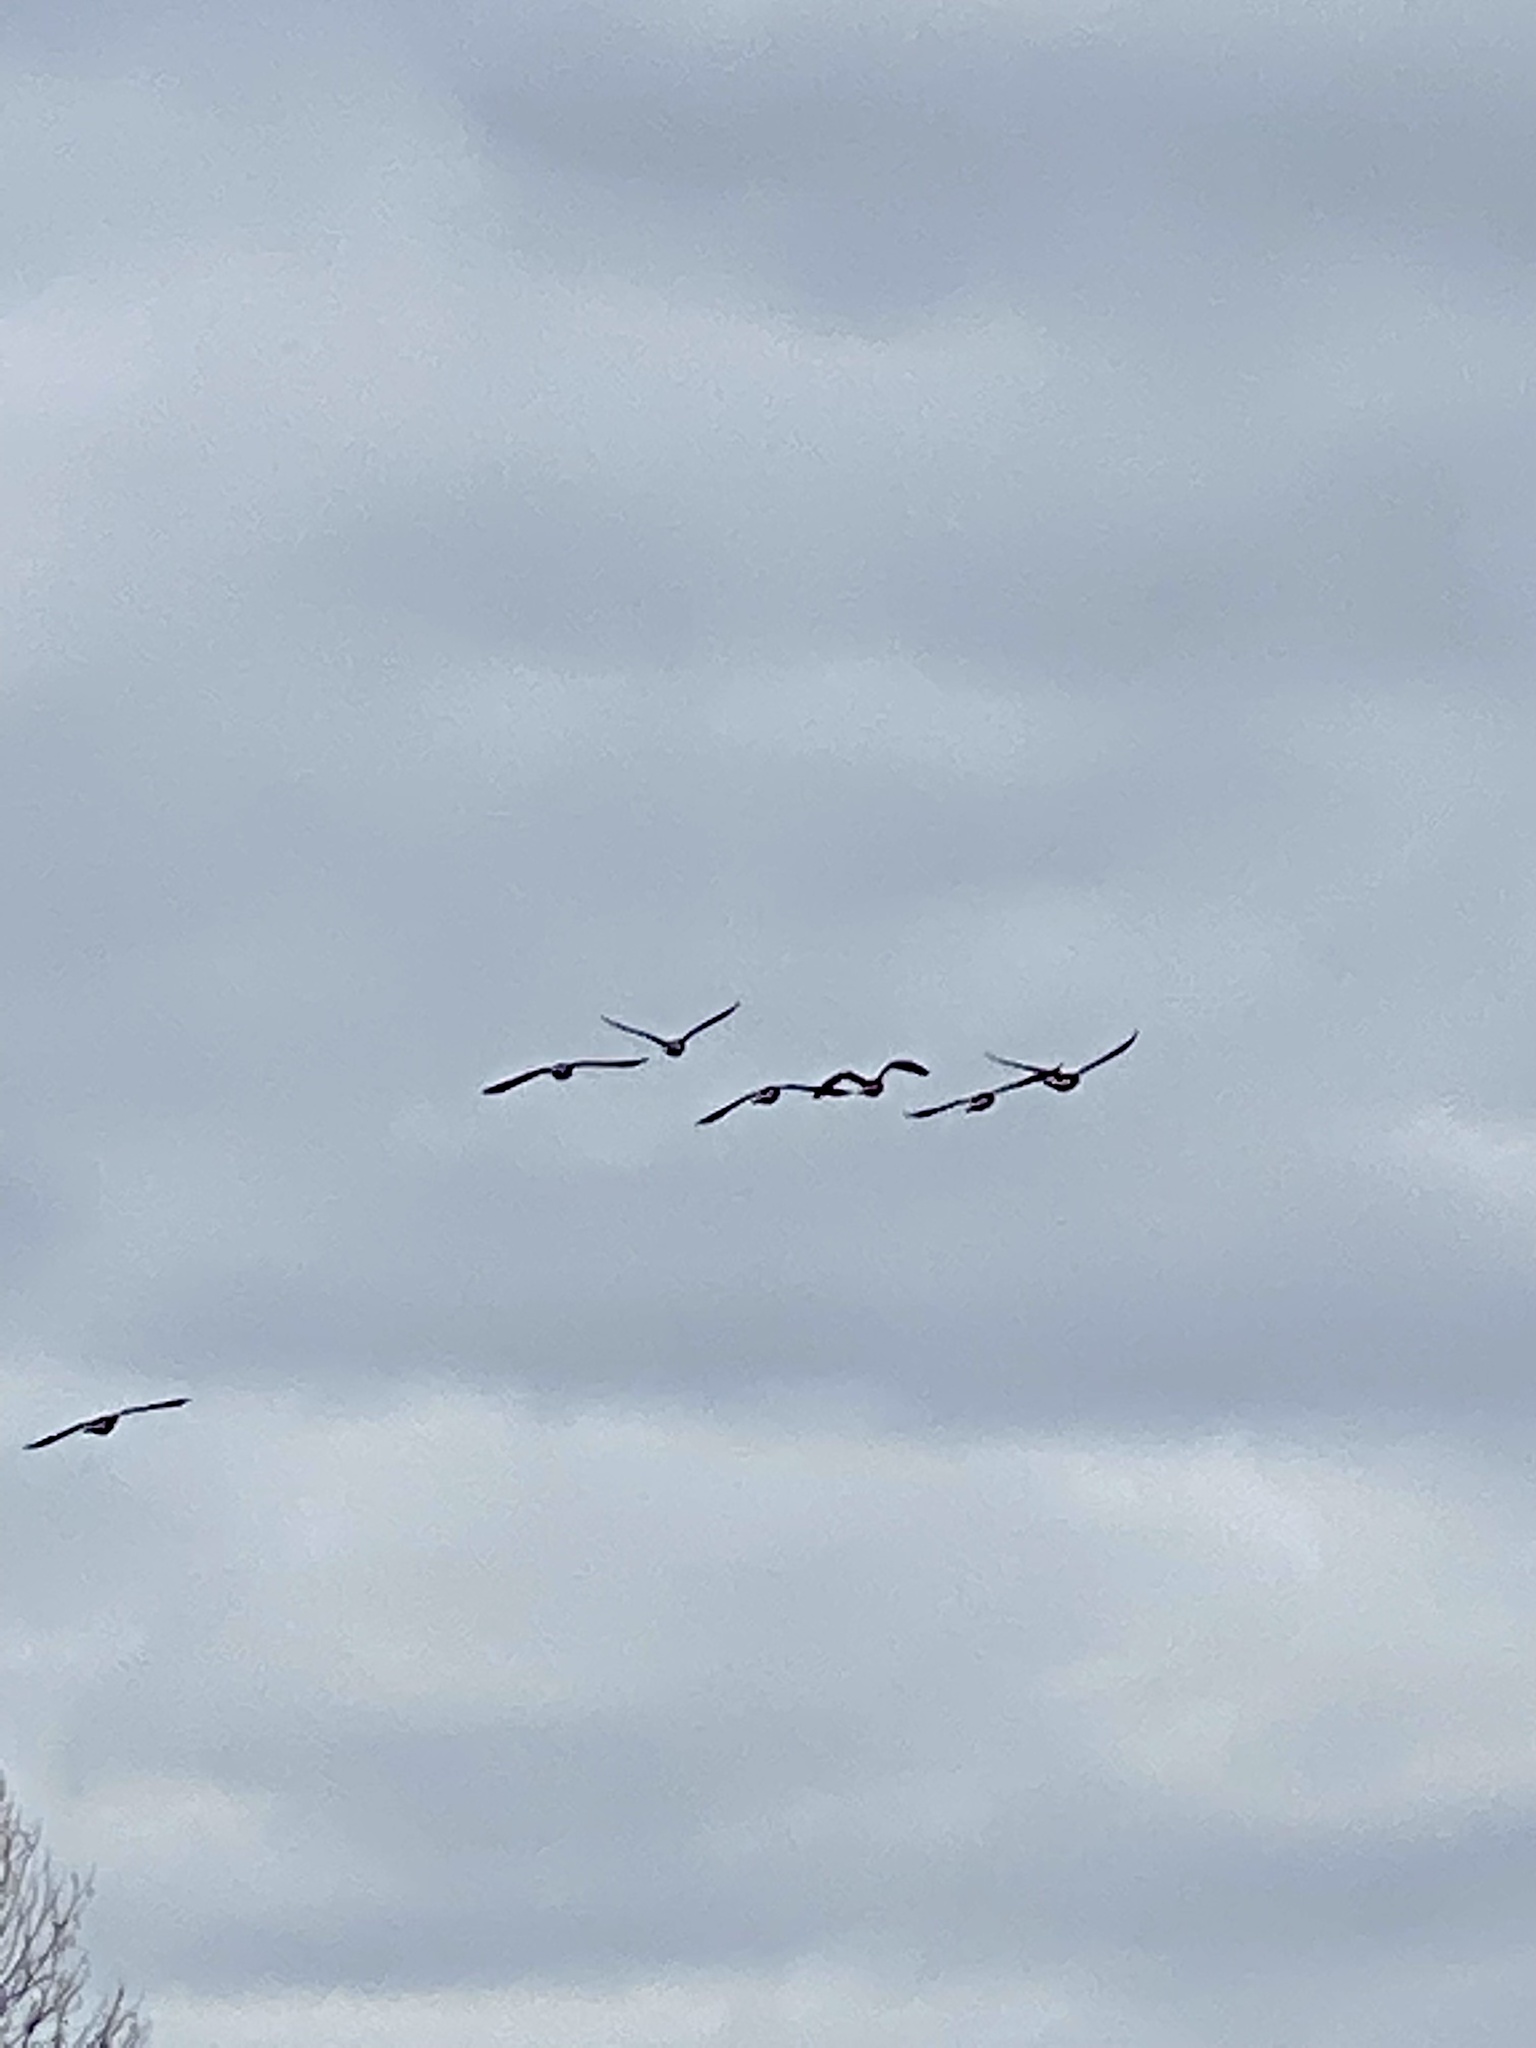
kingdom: Animalia
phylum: Chordata
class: Aves
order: Anseriformes
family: Anatidae
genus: Branta
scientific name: Branta canadensis
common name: Canada goose
